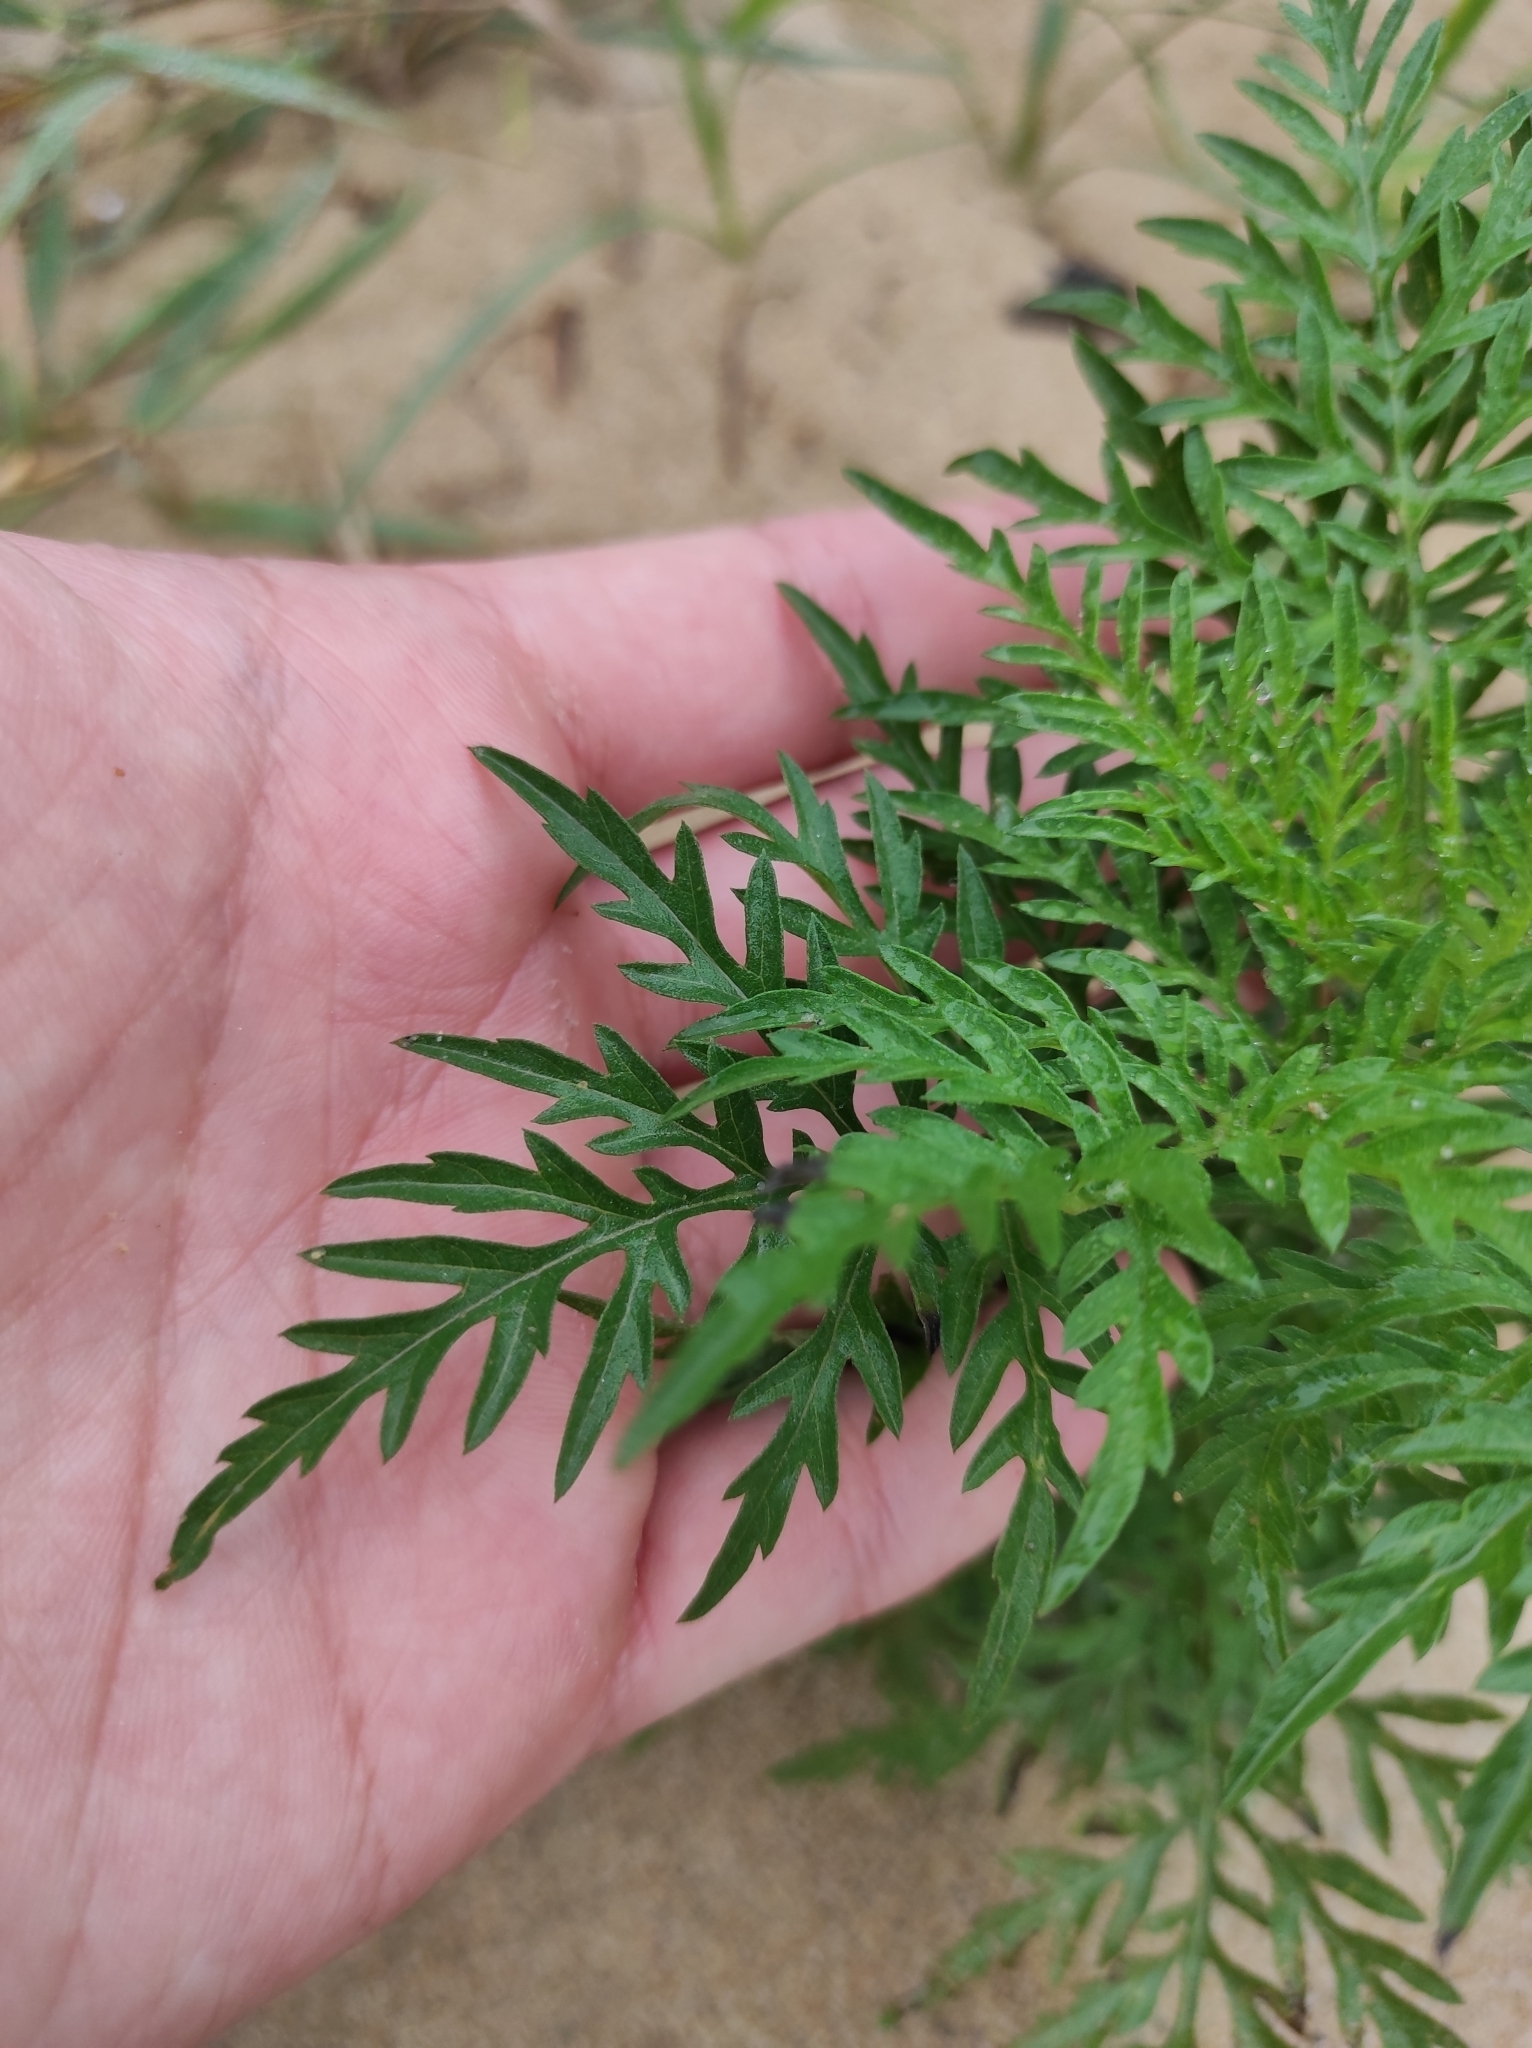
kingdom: Plantae
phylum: Tracheophyta
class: Magnoliopsida
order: Asterales
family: Asteraceae
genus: Ambrosia
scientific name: Ambrosia artemisiifolia
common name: Annual ragweed
